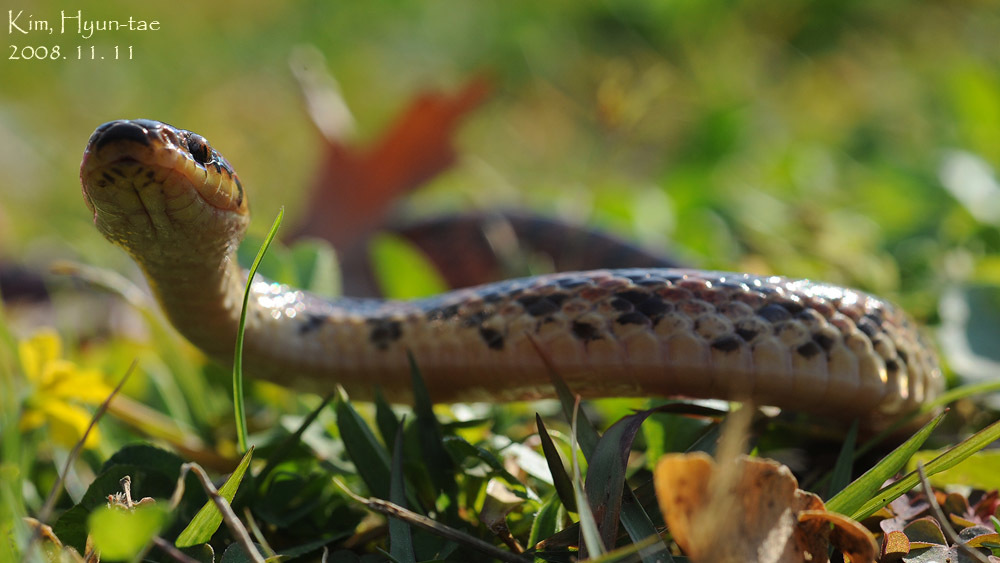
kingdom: Animalia
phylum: Chordata
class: Squamata
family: Colubridae
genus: Lycodon
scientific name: Lycodon rufozonatus
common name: Red-banded snake
